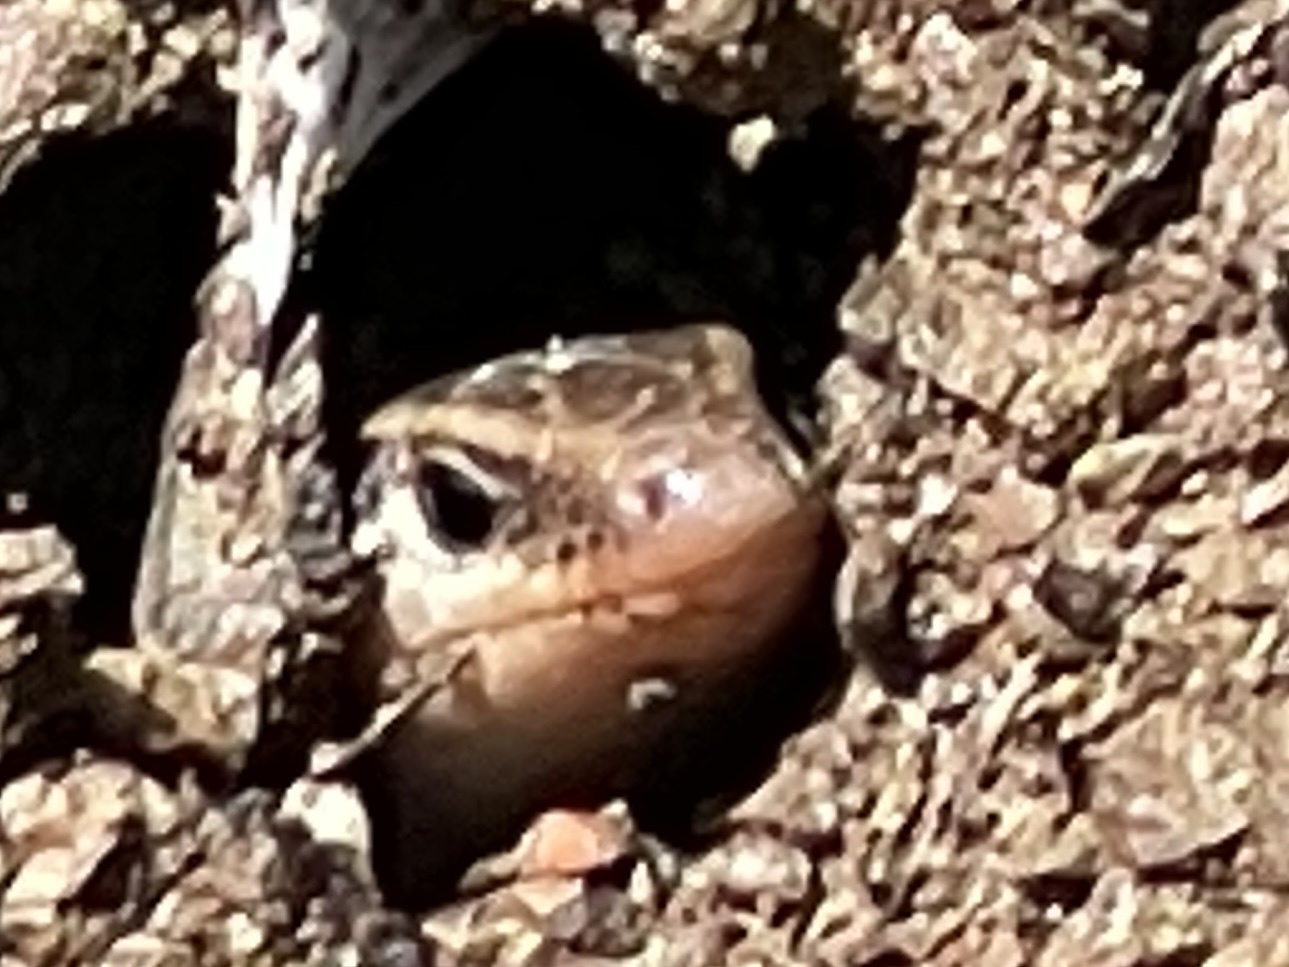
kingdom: Animalia
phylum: Chordata
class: Squamata
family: Scincidae
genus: Plestiodon
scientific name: Plestiodon skiltonianus
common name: Coronado island skink [interparietalis]
